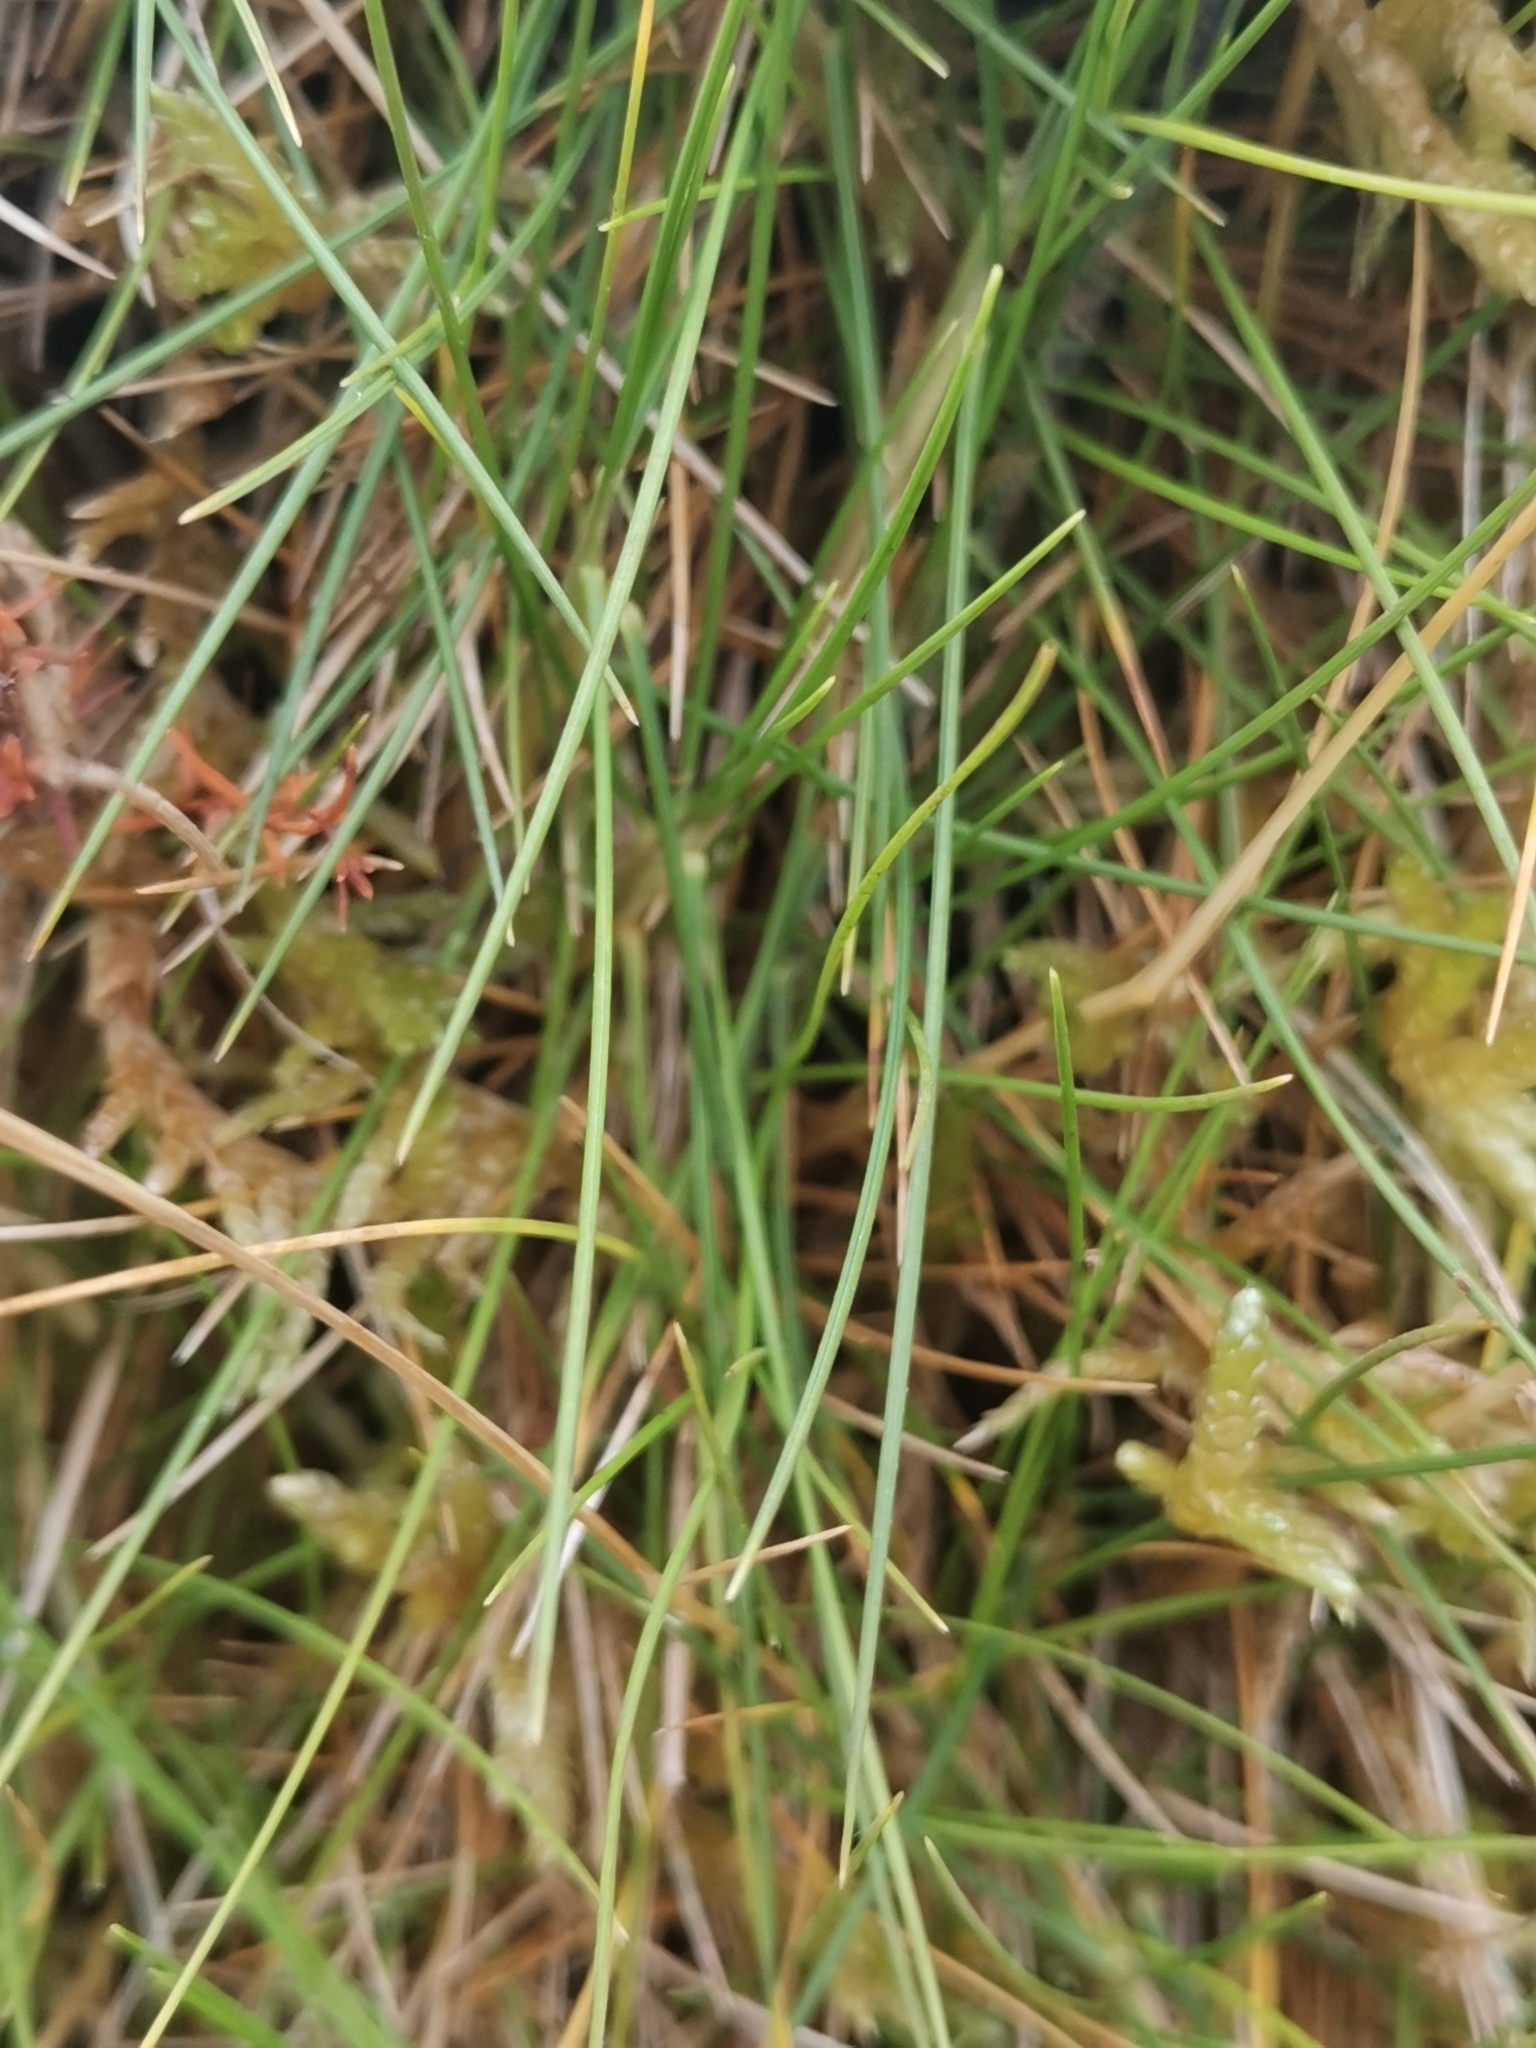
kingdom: Plantae
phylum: Tracheophyta
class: Liliopsida
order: Poales
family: Poaceae
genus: Avenella
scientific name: Avenella foliosa
